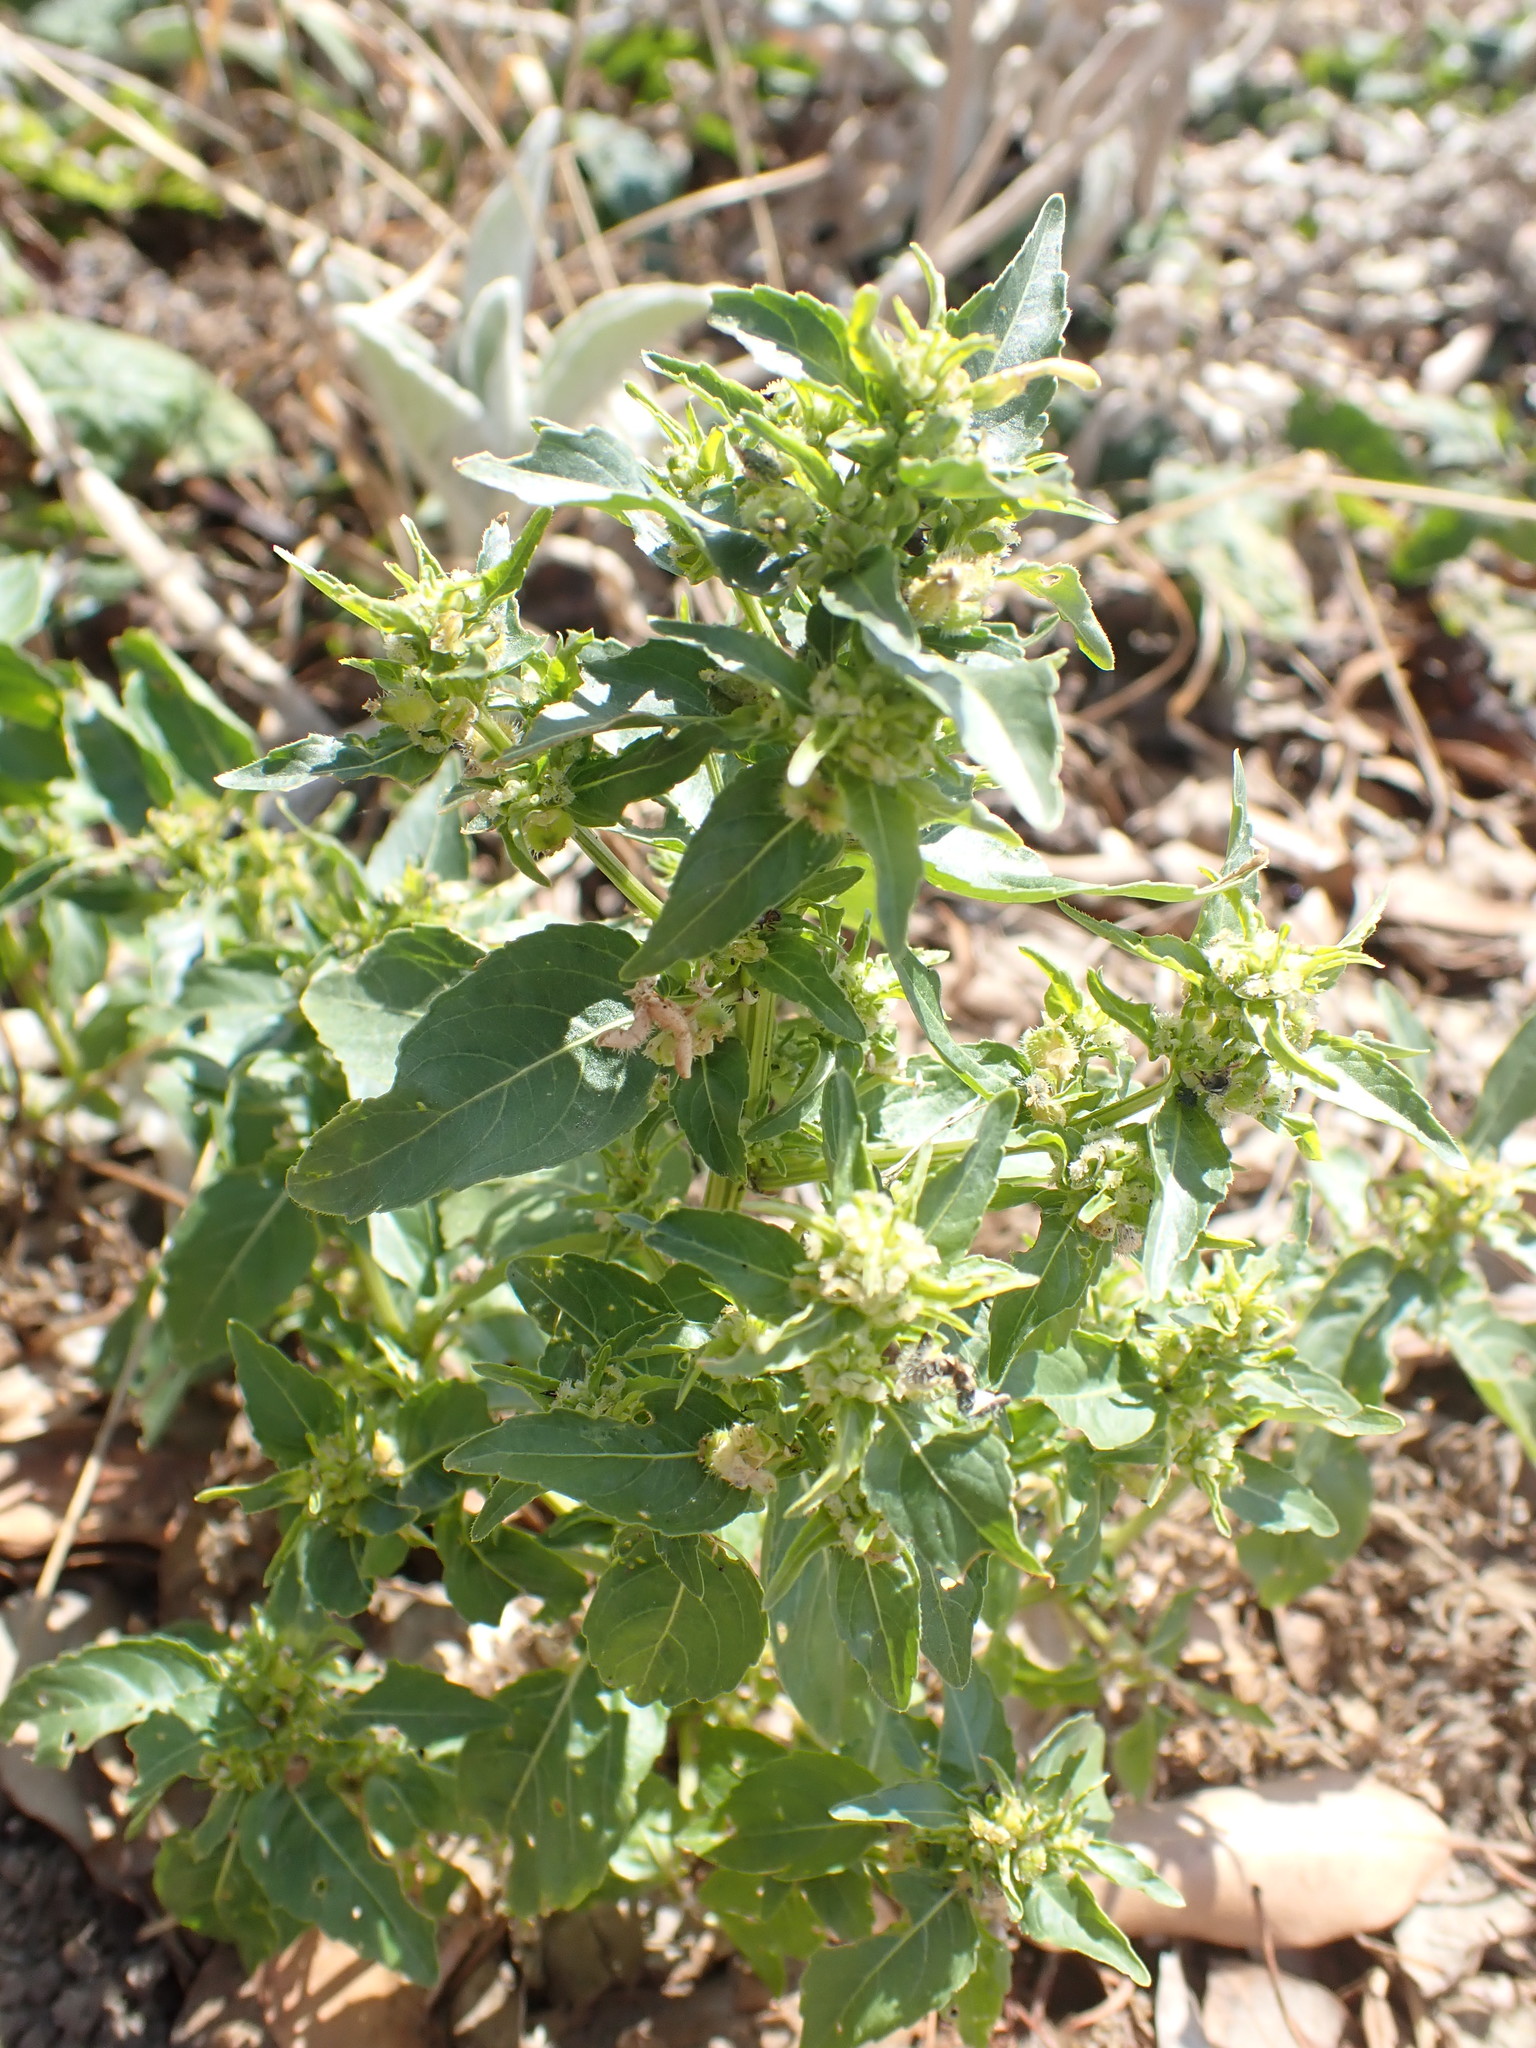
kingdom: Plantae
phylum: Tracheophyta
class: Magnoliopsida
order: Malpighiales
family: Euphorbiaceae
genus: Mercurialis
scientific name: Mercurialis annua
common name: Annual mercury
